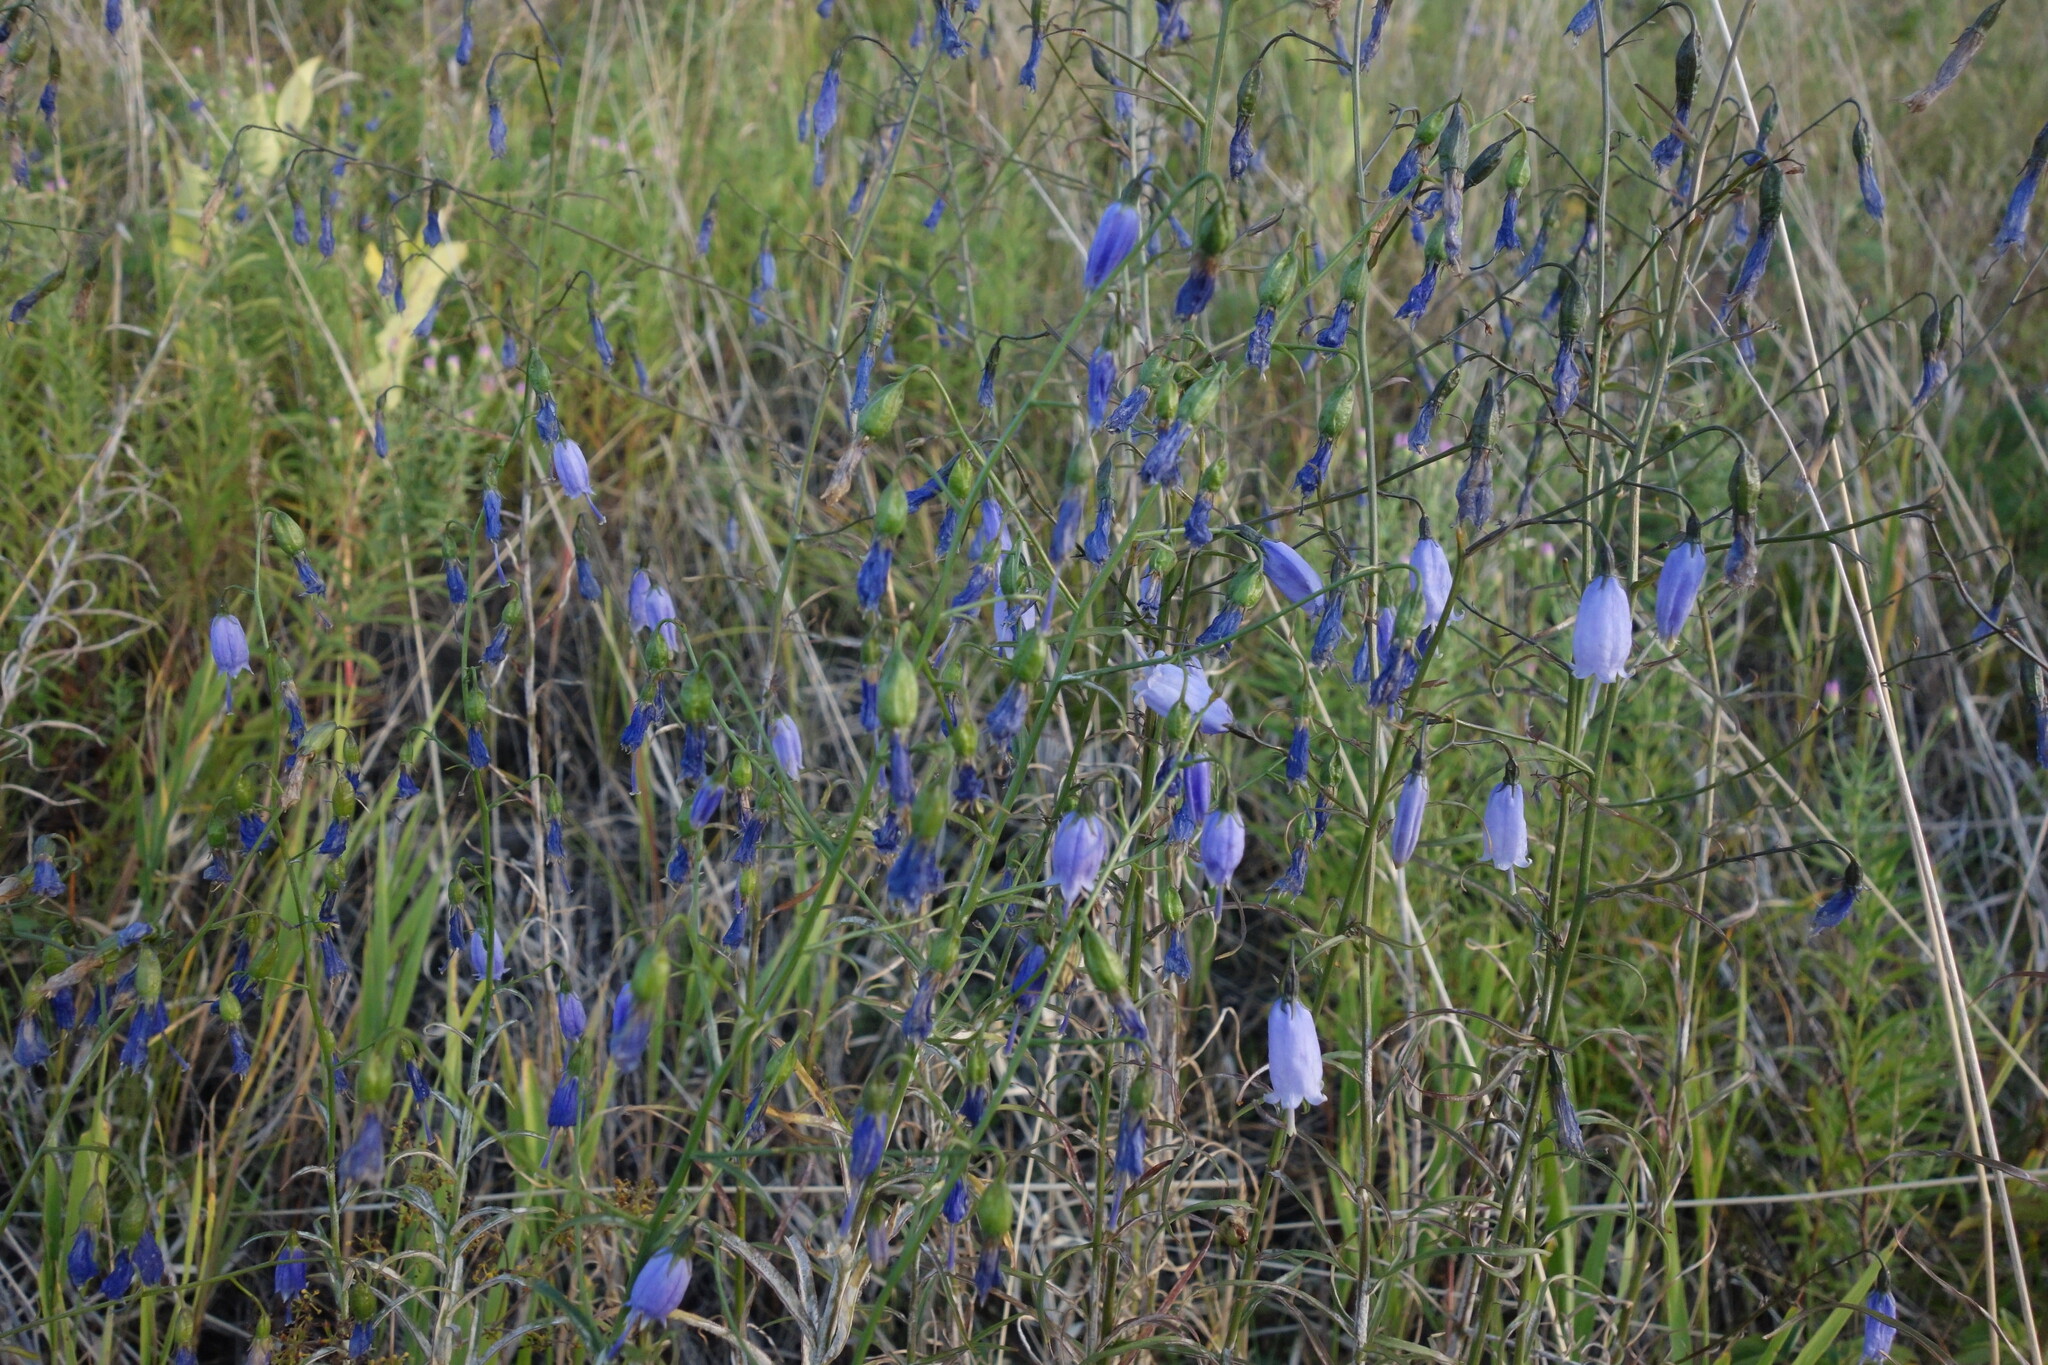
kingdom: Plantae
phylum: Tracheophyta
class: Magnoliopsida
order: Asterales
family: Campanulaceae
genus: Adenophora
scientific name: Adenophora stenanthina
